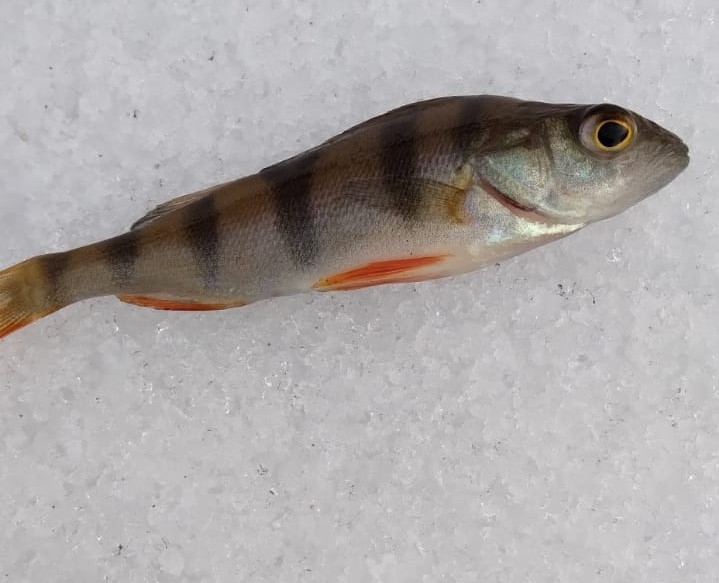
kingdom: Animalia
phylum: Chordata
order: Perciformes
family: Percidae
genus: Perca
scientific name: Perca fluviatilis
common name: Perch
